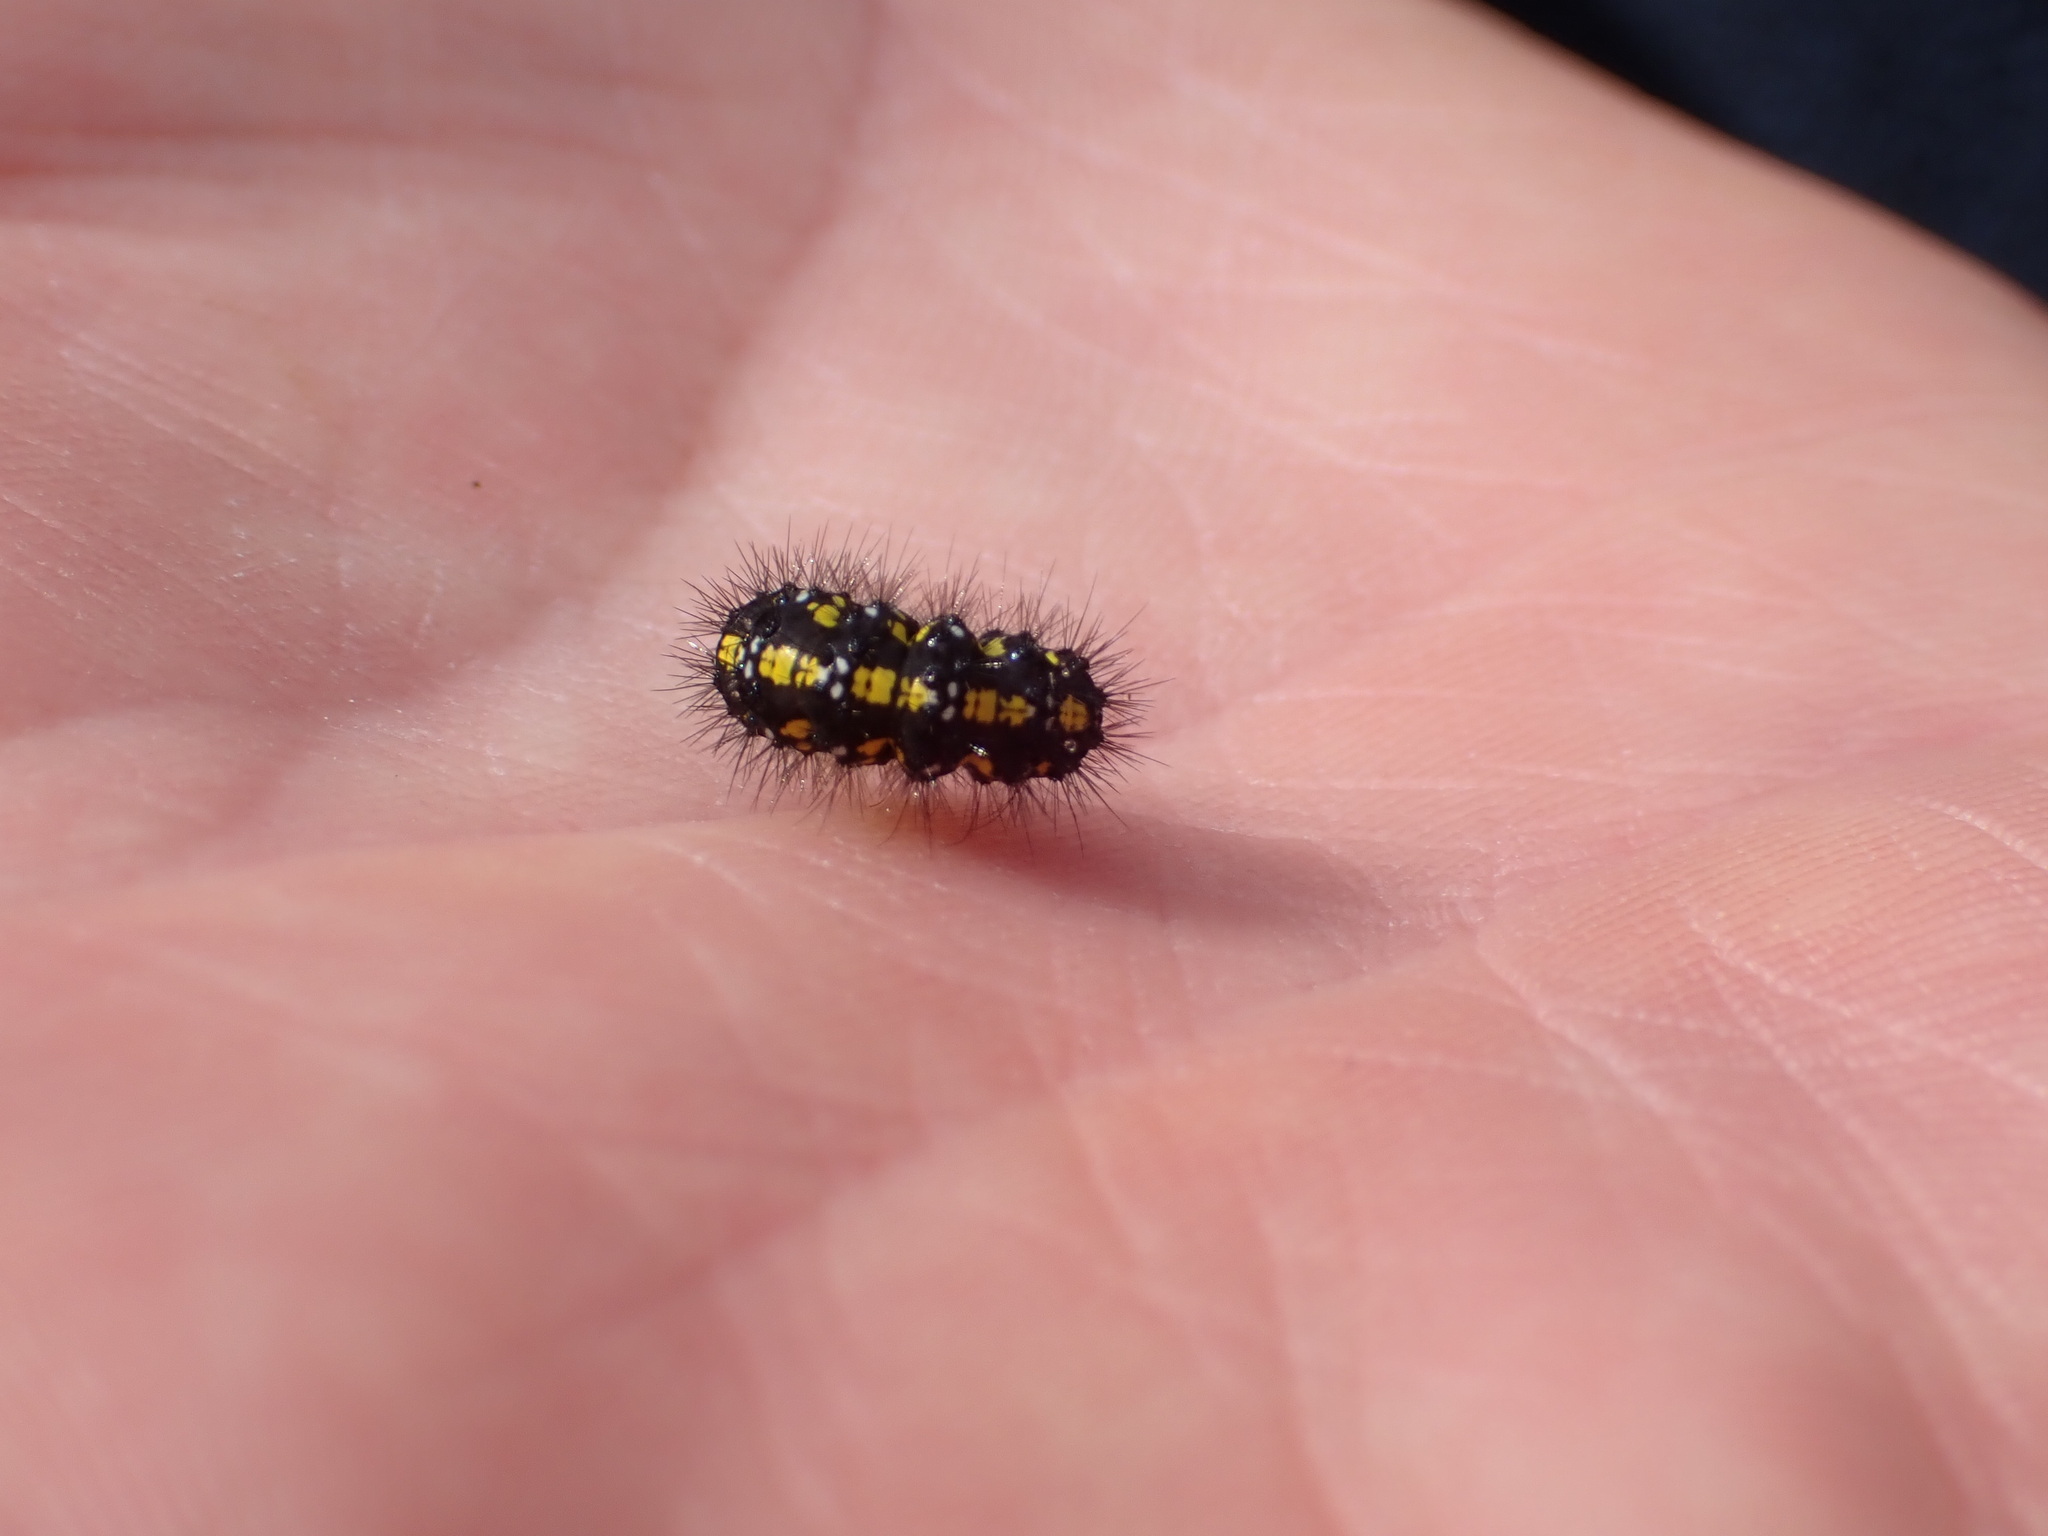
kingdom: Animalia
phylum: Arthropoda
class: Insecta
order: Lepidoptera
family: Erebidae
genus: Callimorpha
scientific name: Callimorpha dominula
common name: Scarlet tiger
